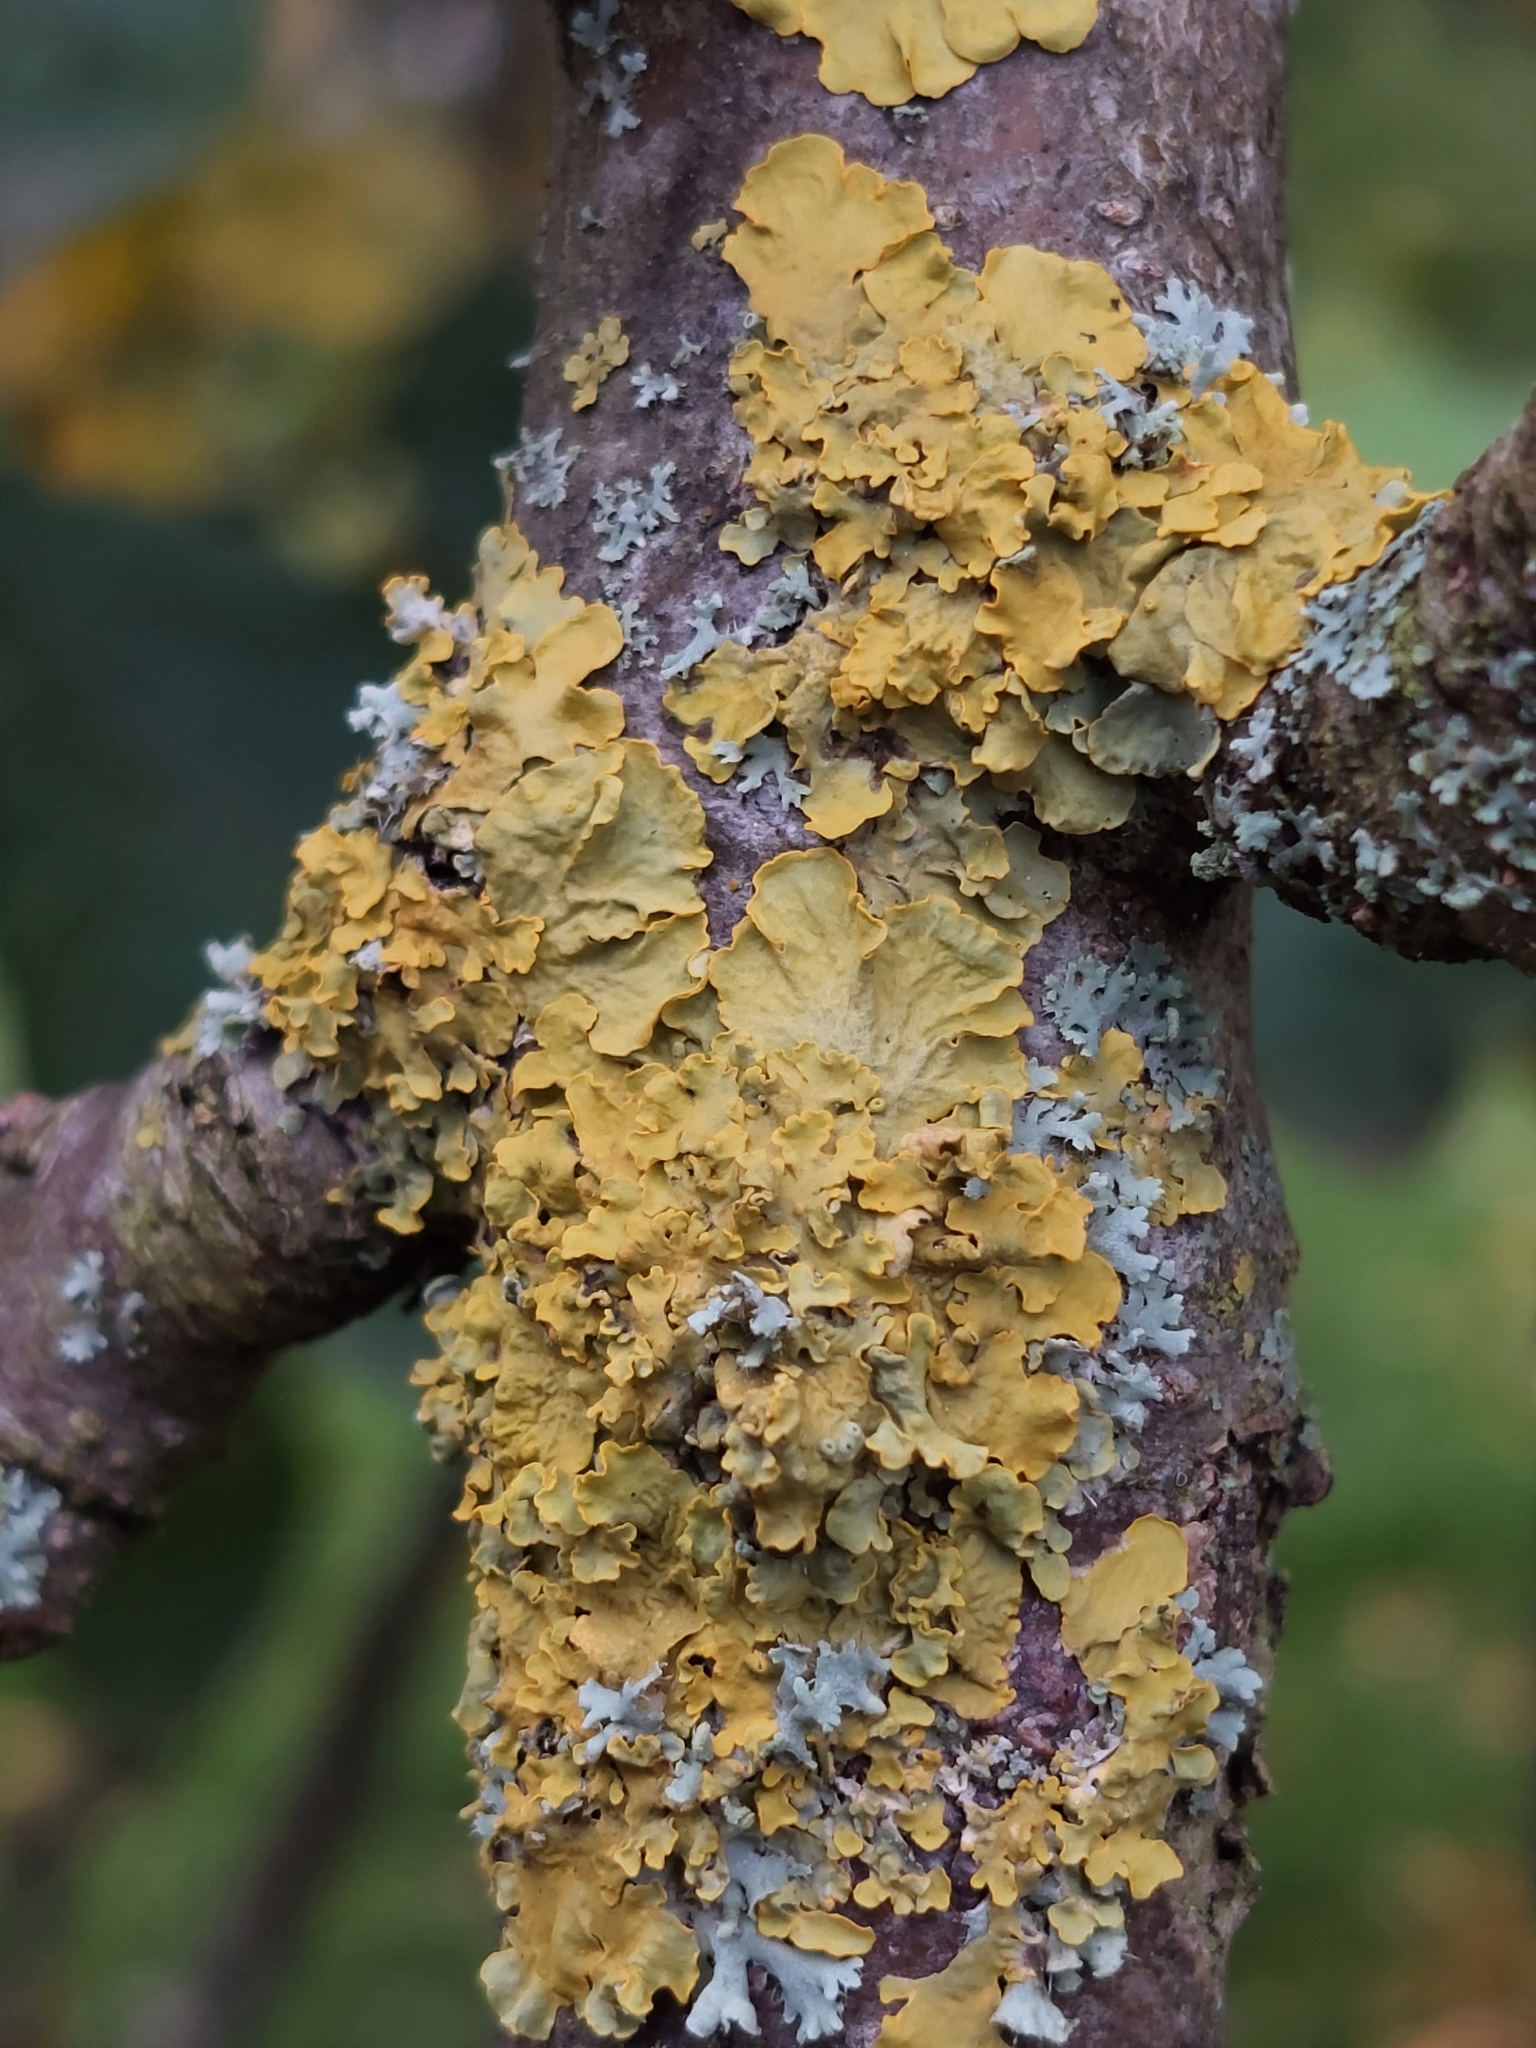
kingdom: Fungi
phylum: Ascomycota
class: Lecanoromycetes
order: Teloschistales
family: Teloschistaceae
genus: Xanthoria
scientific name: Xanthoria parietina
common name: Common orange lichen
